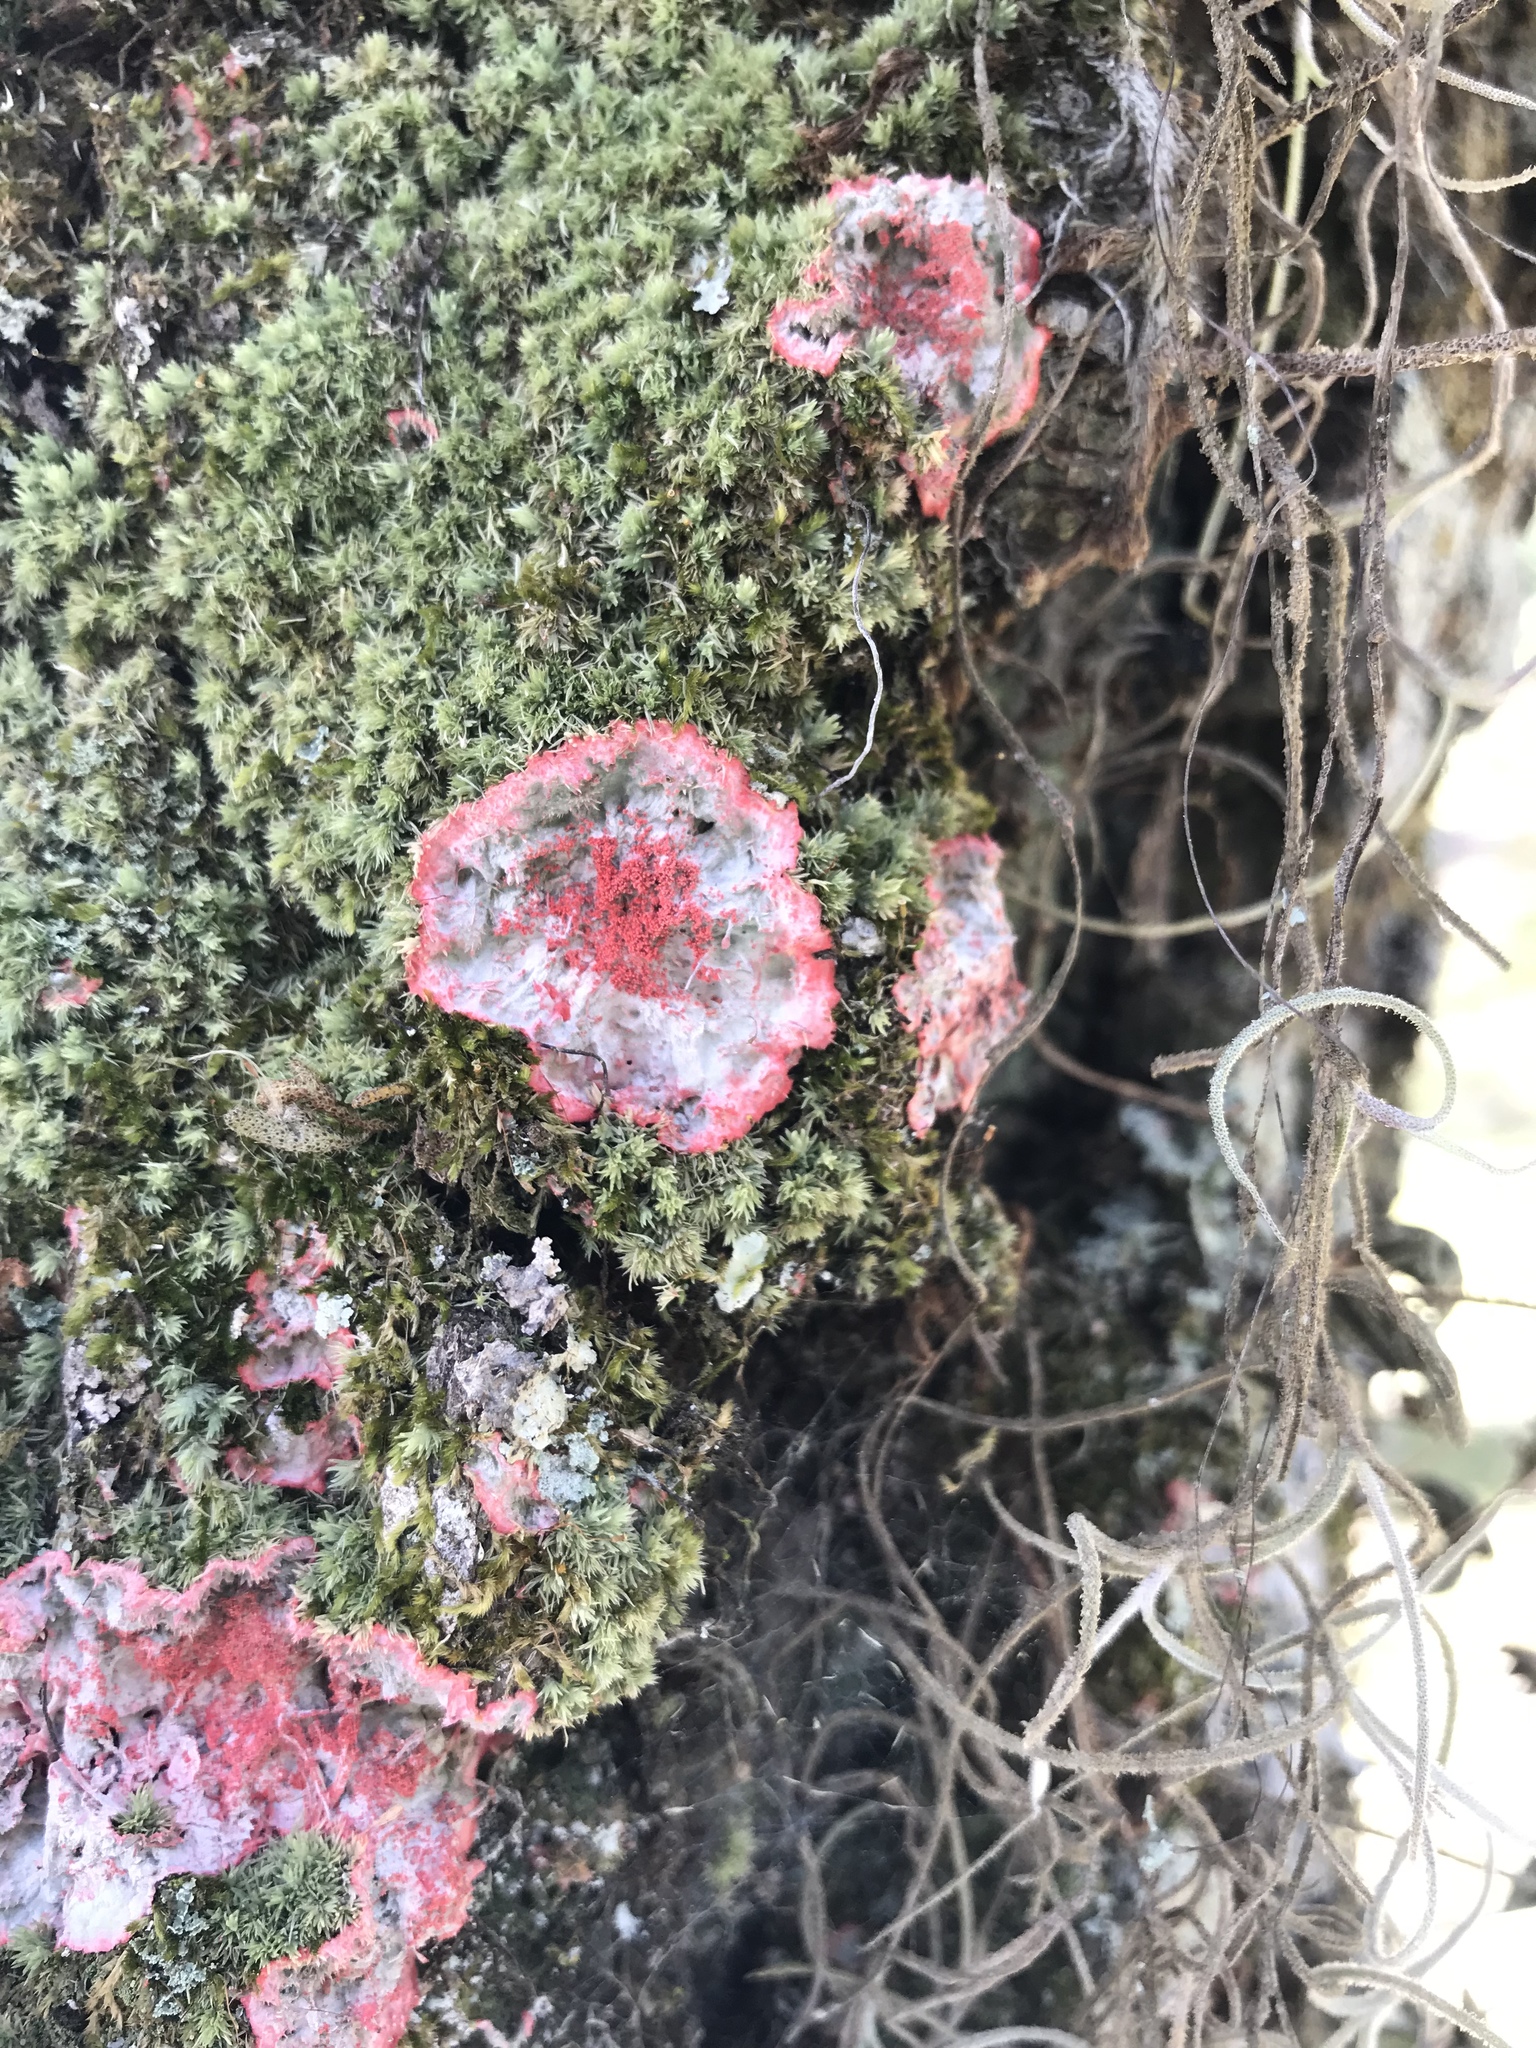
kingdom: Fungi
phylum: Ascomycota
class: Arthoniomycetes
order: Arthoniales
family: Arthoniaceae
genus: Herpothallon
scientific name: Herpothallon rubrocinctum
